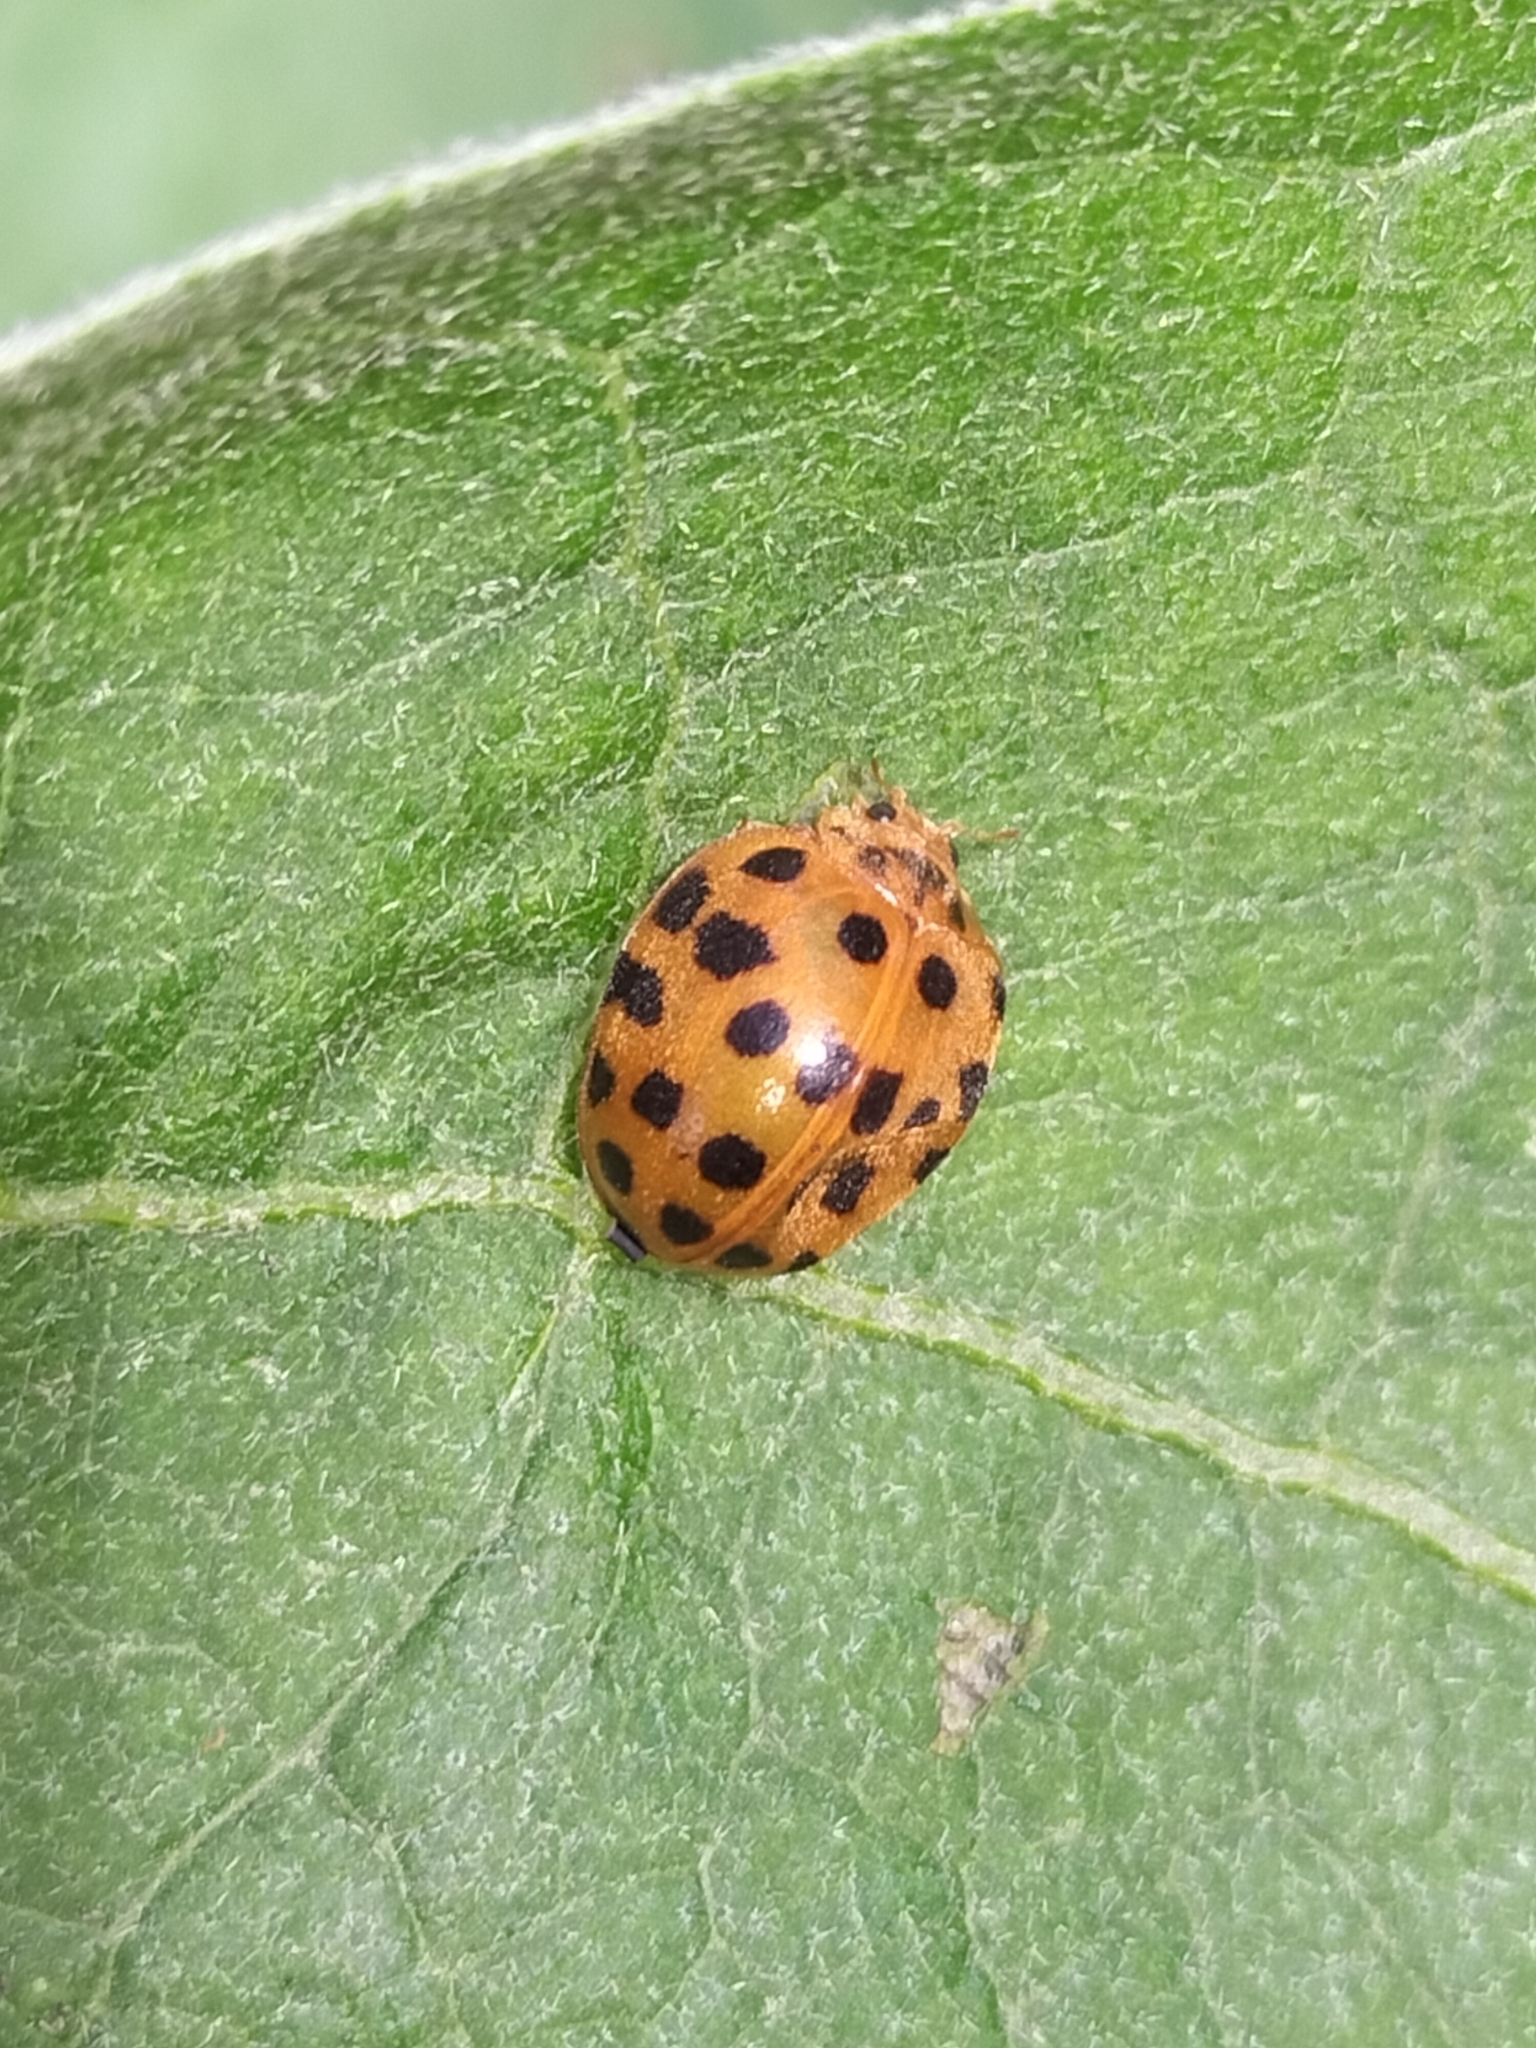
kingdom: Animalia
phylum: Arthropoda
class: Insecta
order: Coleoptera
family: Coccinellidae
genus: Henosepilachna
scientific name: Henosepilachna vigintioctopunctata
